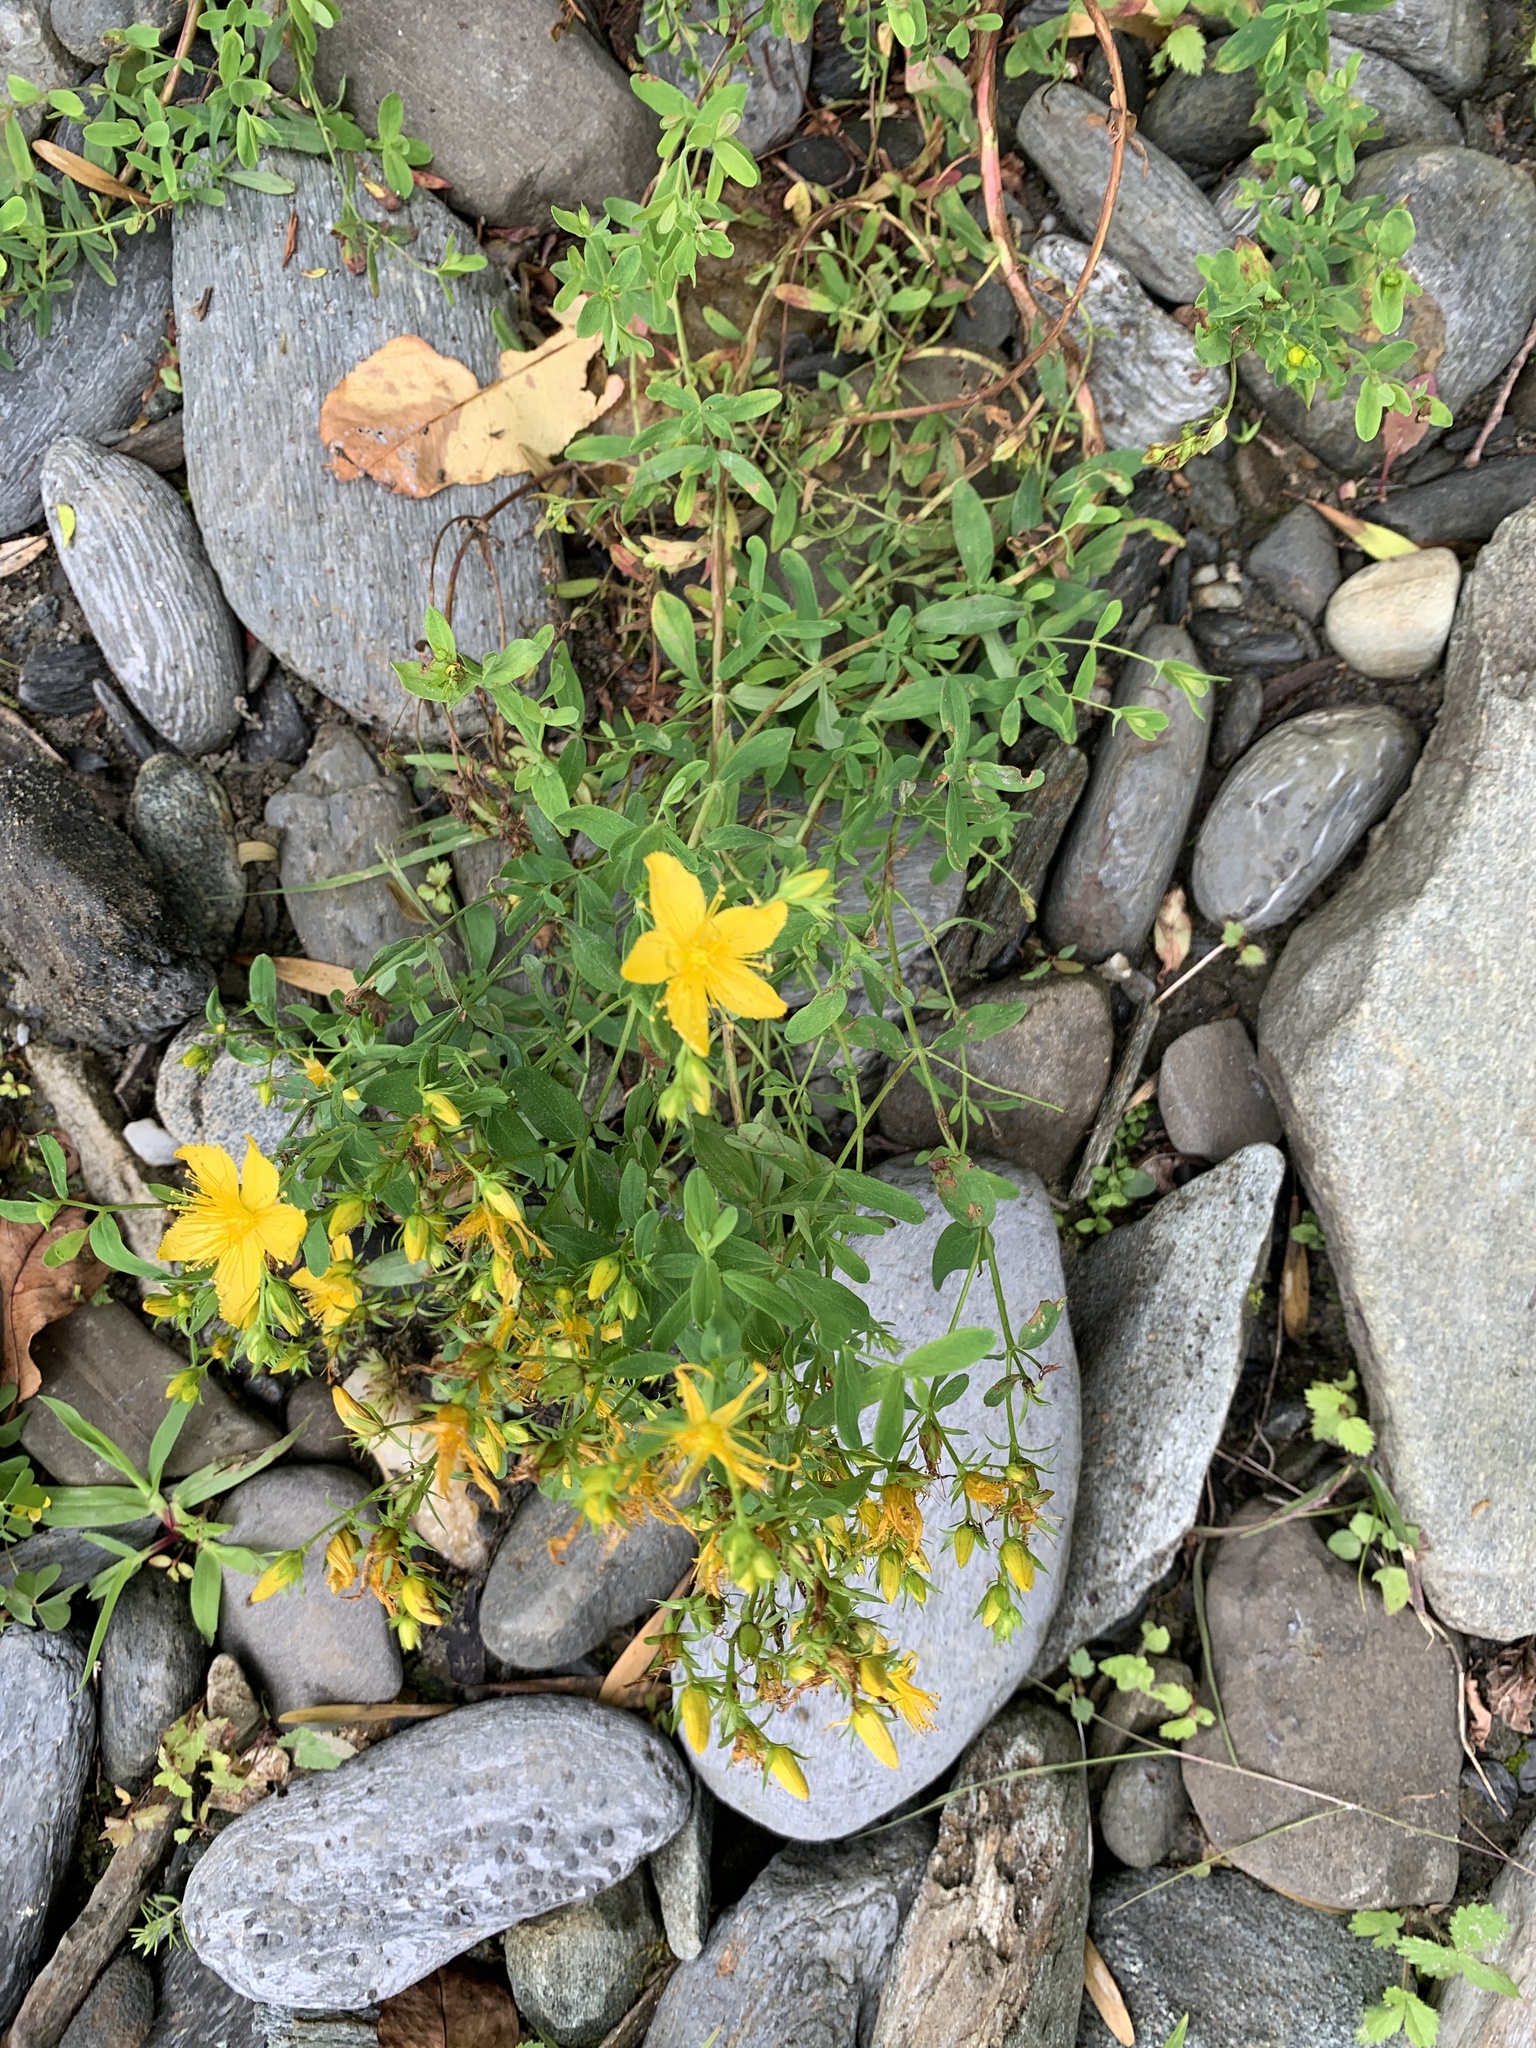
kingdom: Plantae
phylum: Tracheophyta
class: Magnoliopsida
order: Malpighiales
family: Hypericaceae
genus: Hypericum
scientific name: Hypericum perforatum
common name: Common st. johnswort
